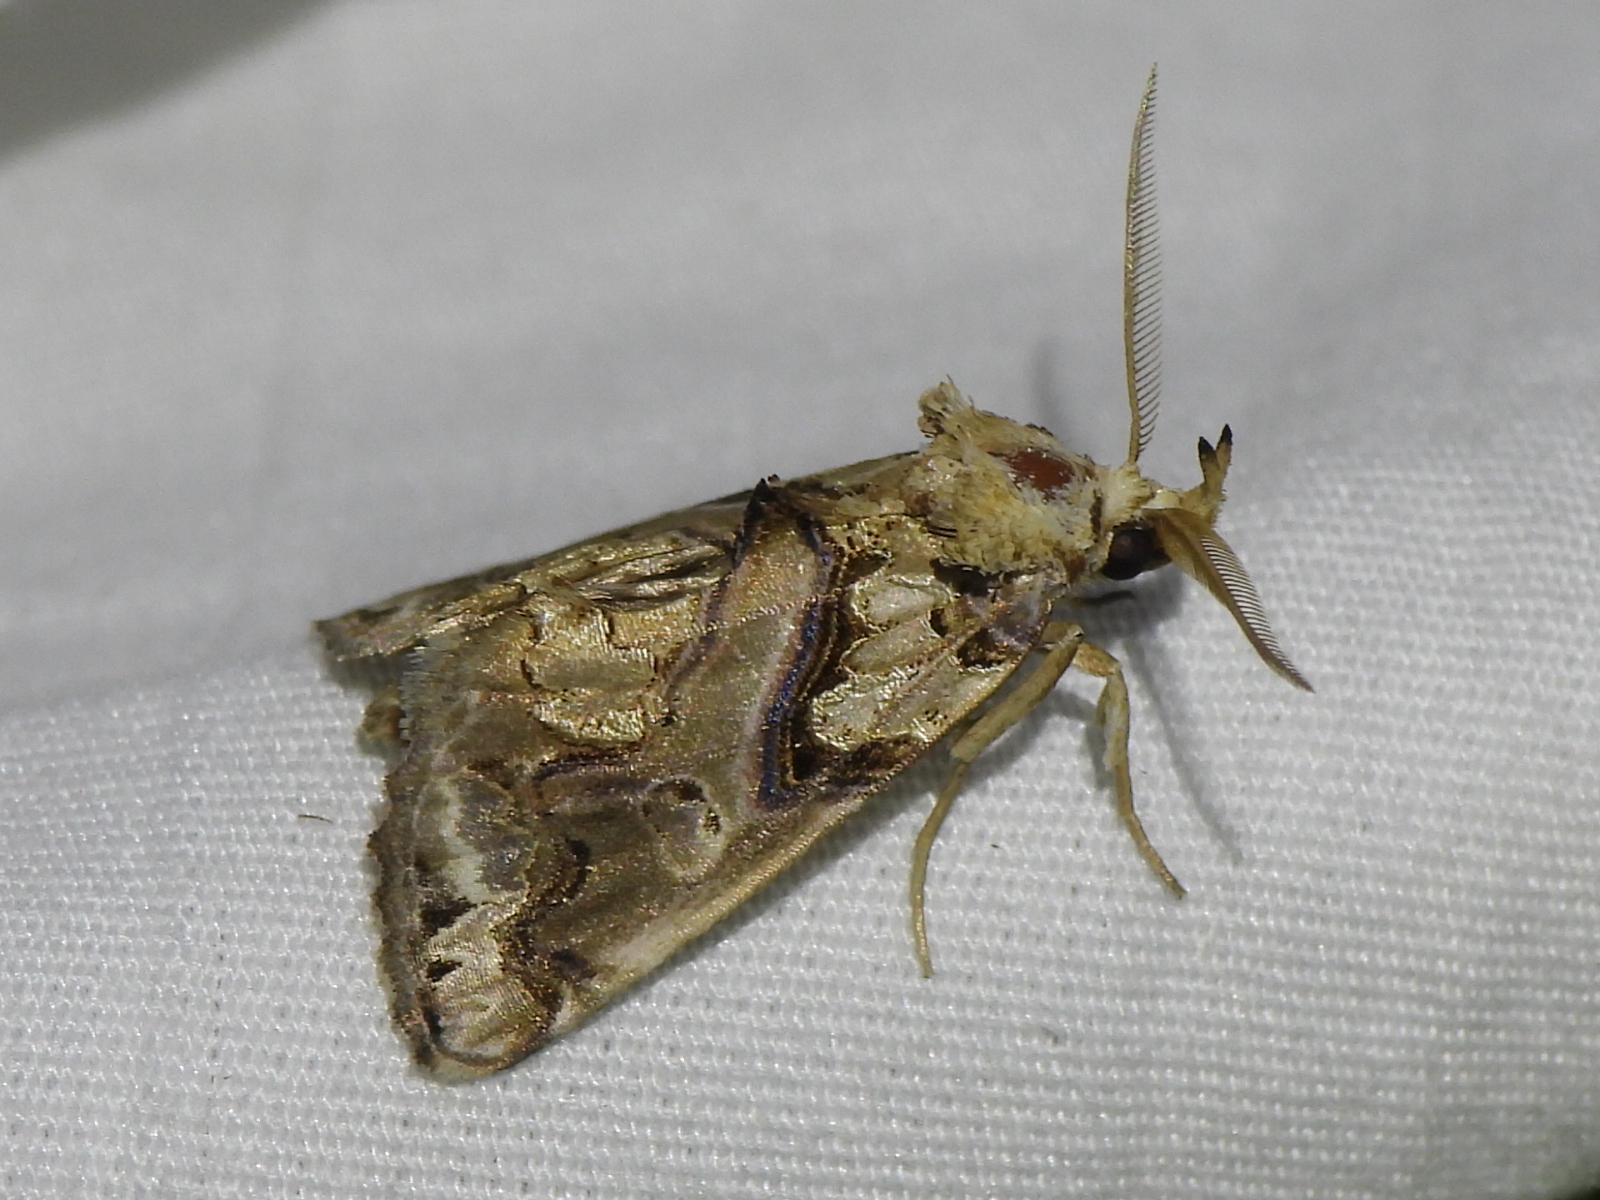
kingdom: Animalia
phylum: Arthropoda
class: Insecta
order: Lepidoptera
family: Erebidae
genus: Plusiodonta
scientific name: Plusiodonta compressipalpis
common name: Moonseed moth
